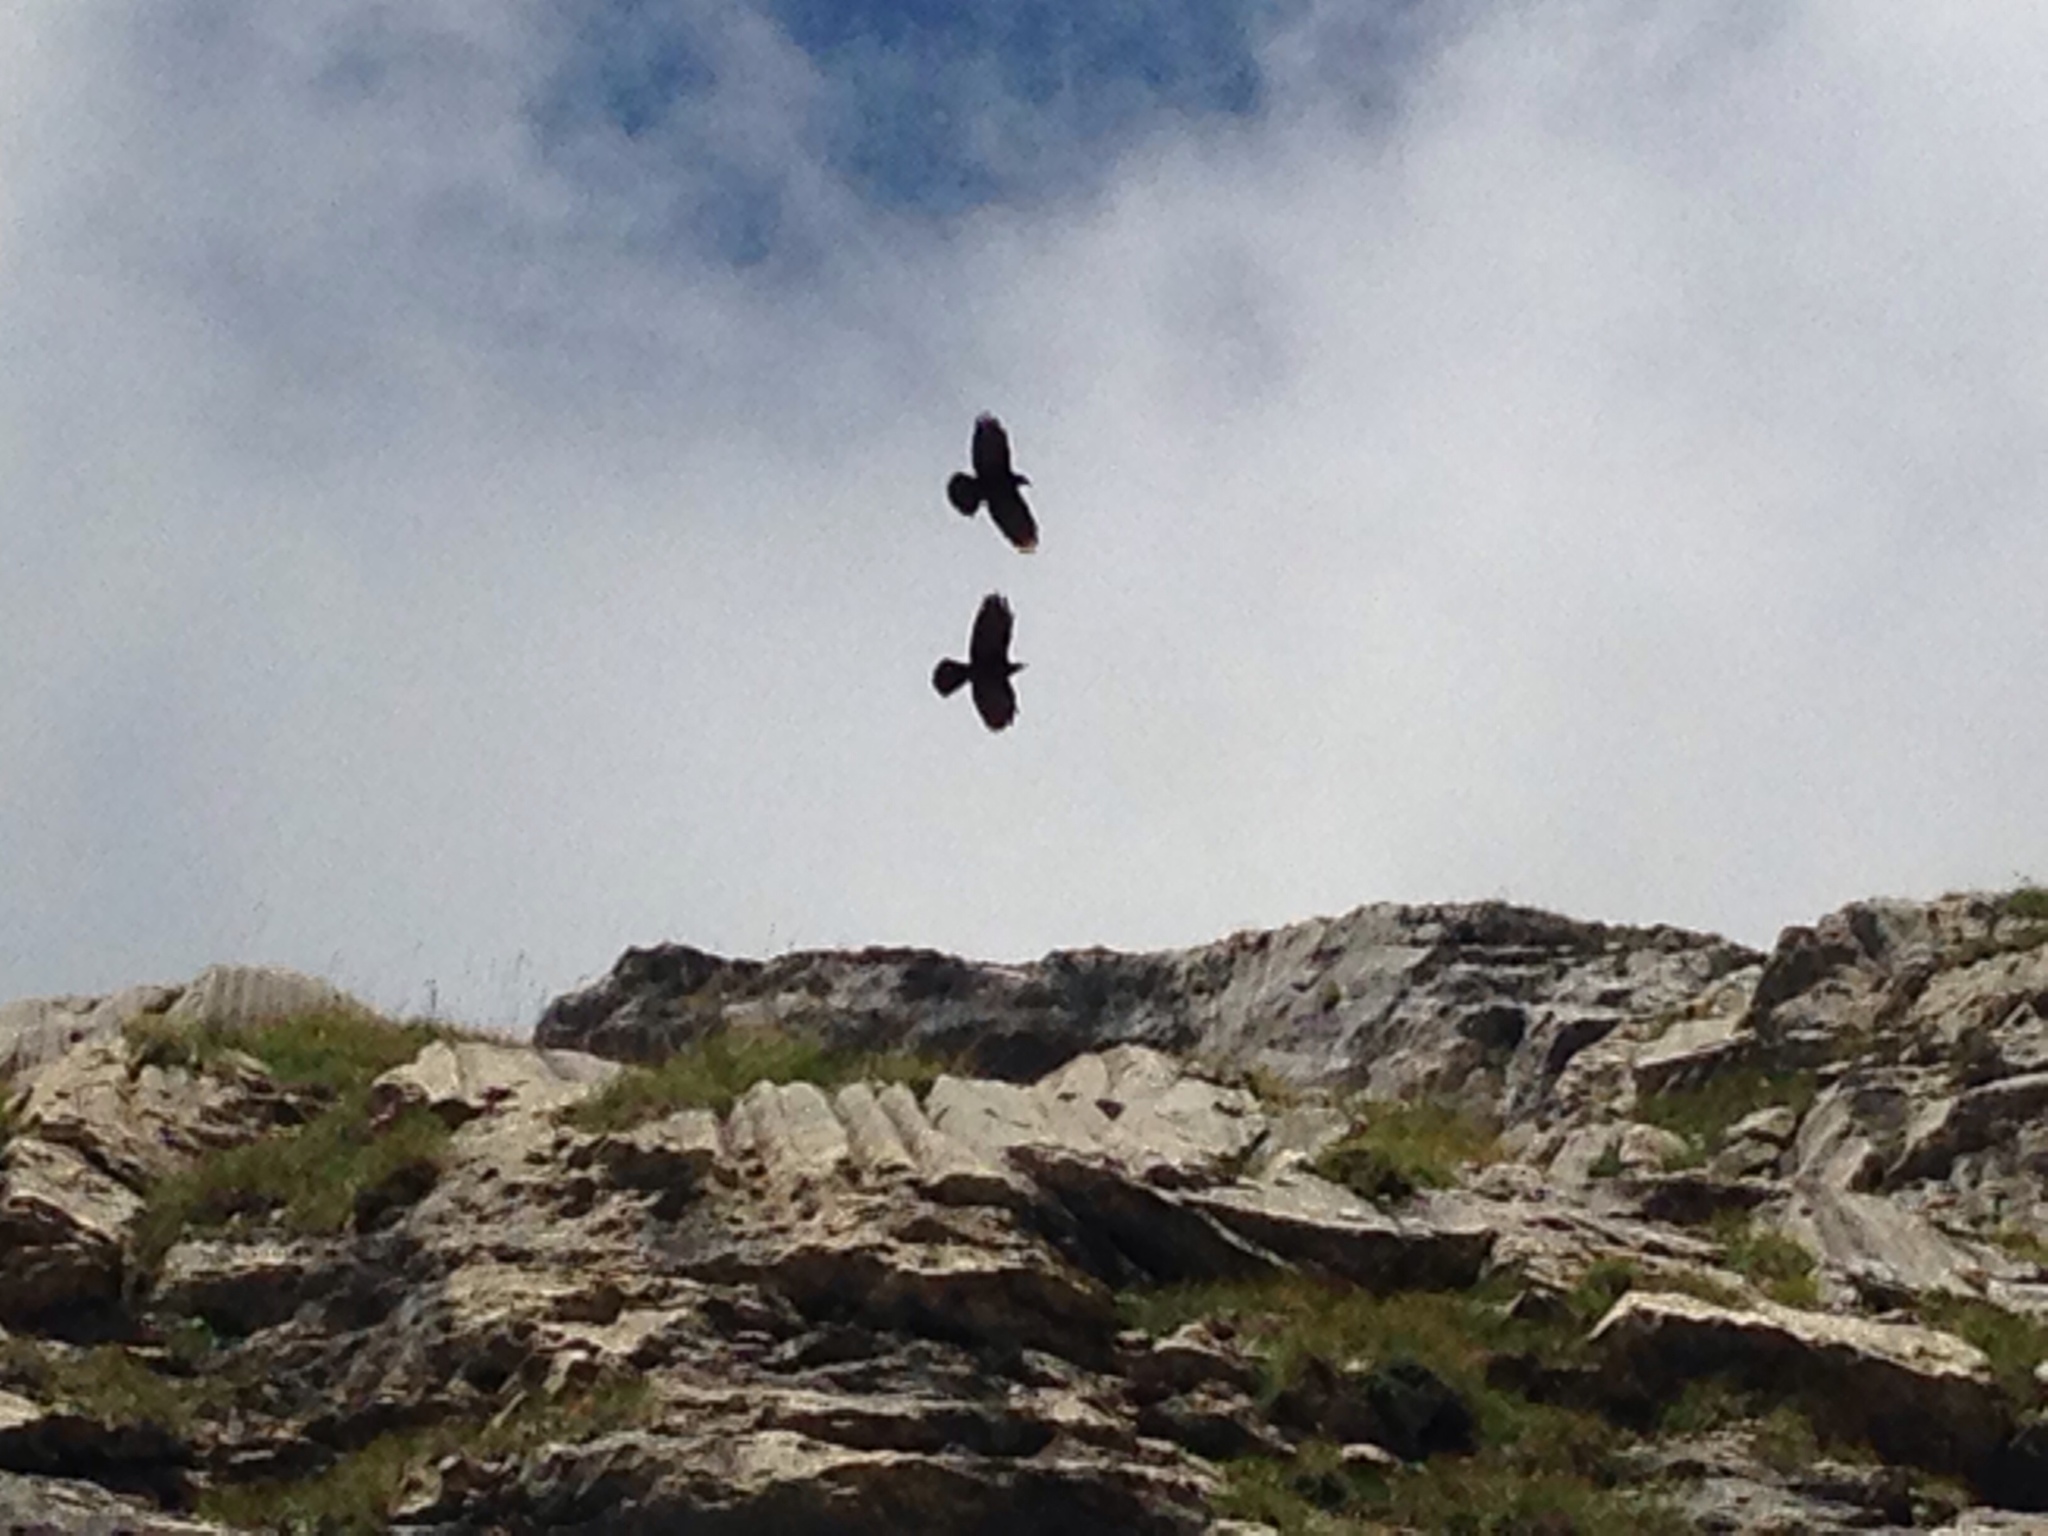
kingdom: Animalia
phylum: Chordata
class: Aves
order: Passeriformes
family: Corvidae
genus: Pyrrhocorax
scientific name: Pyrrhocorax graculus
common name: Alpine chough
